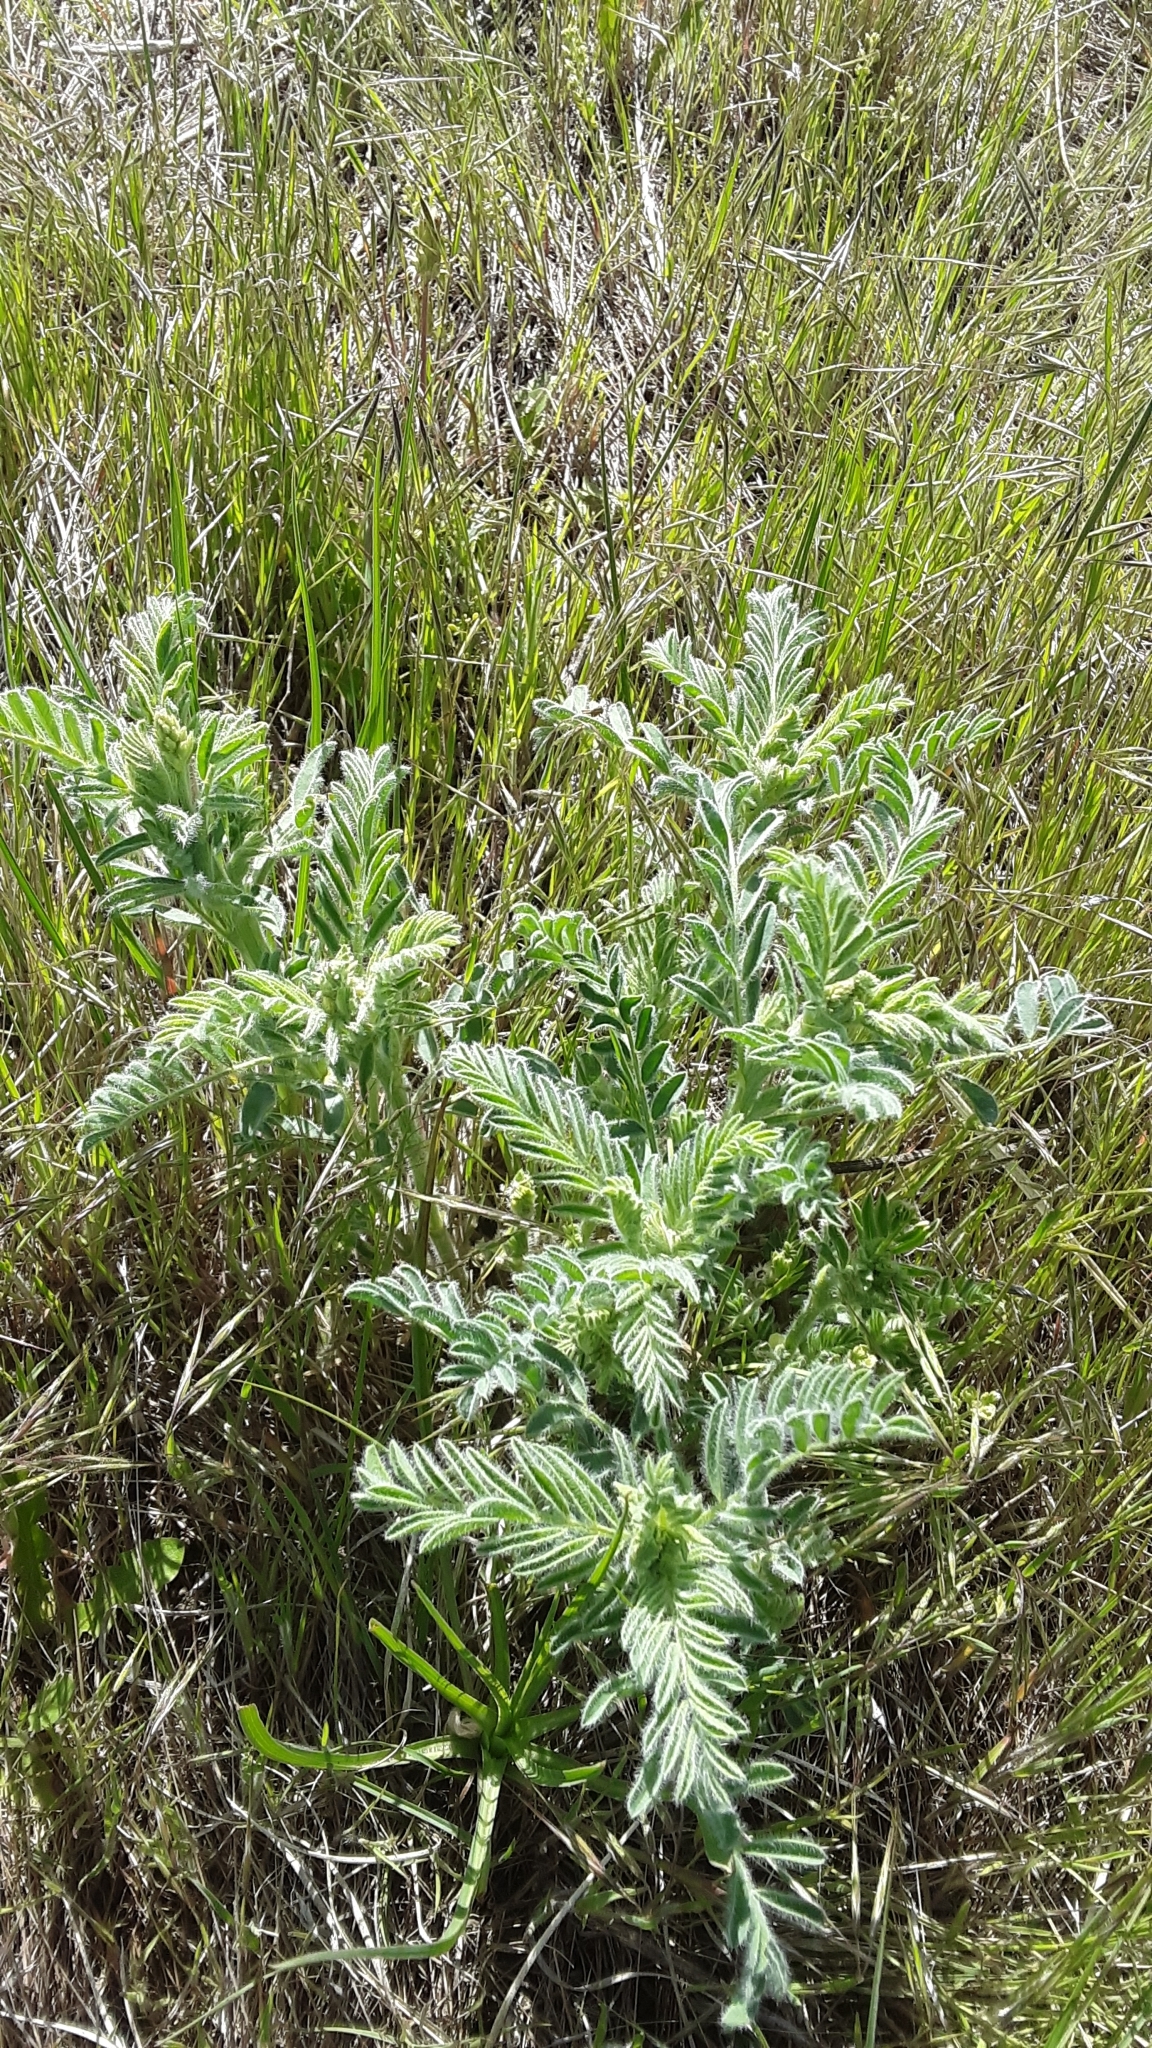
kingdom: Plantae
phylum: Tracheophyta
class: Magnoliopsida
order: Fabales
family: Fabaceae
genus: Astragalus
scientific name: Astragalus drummondii
